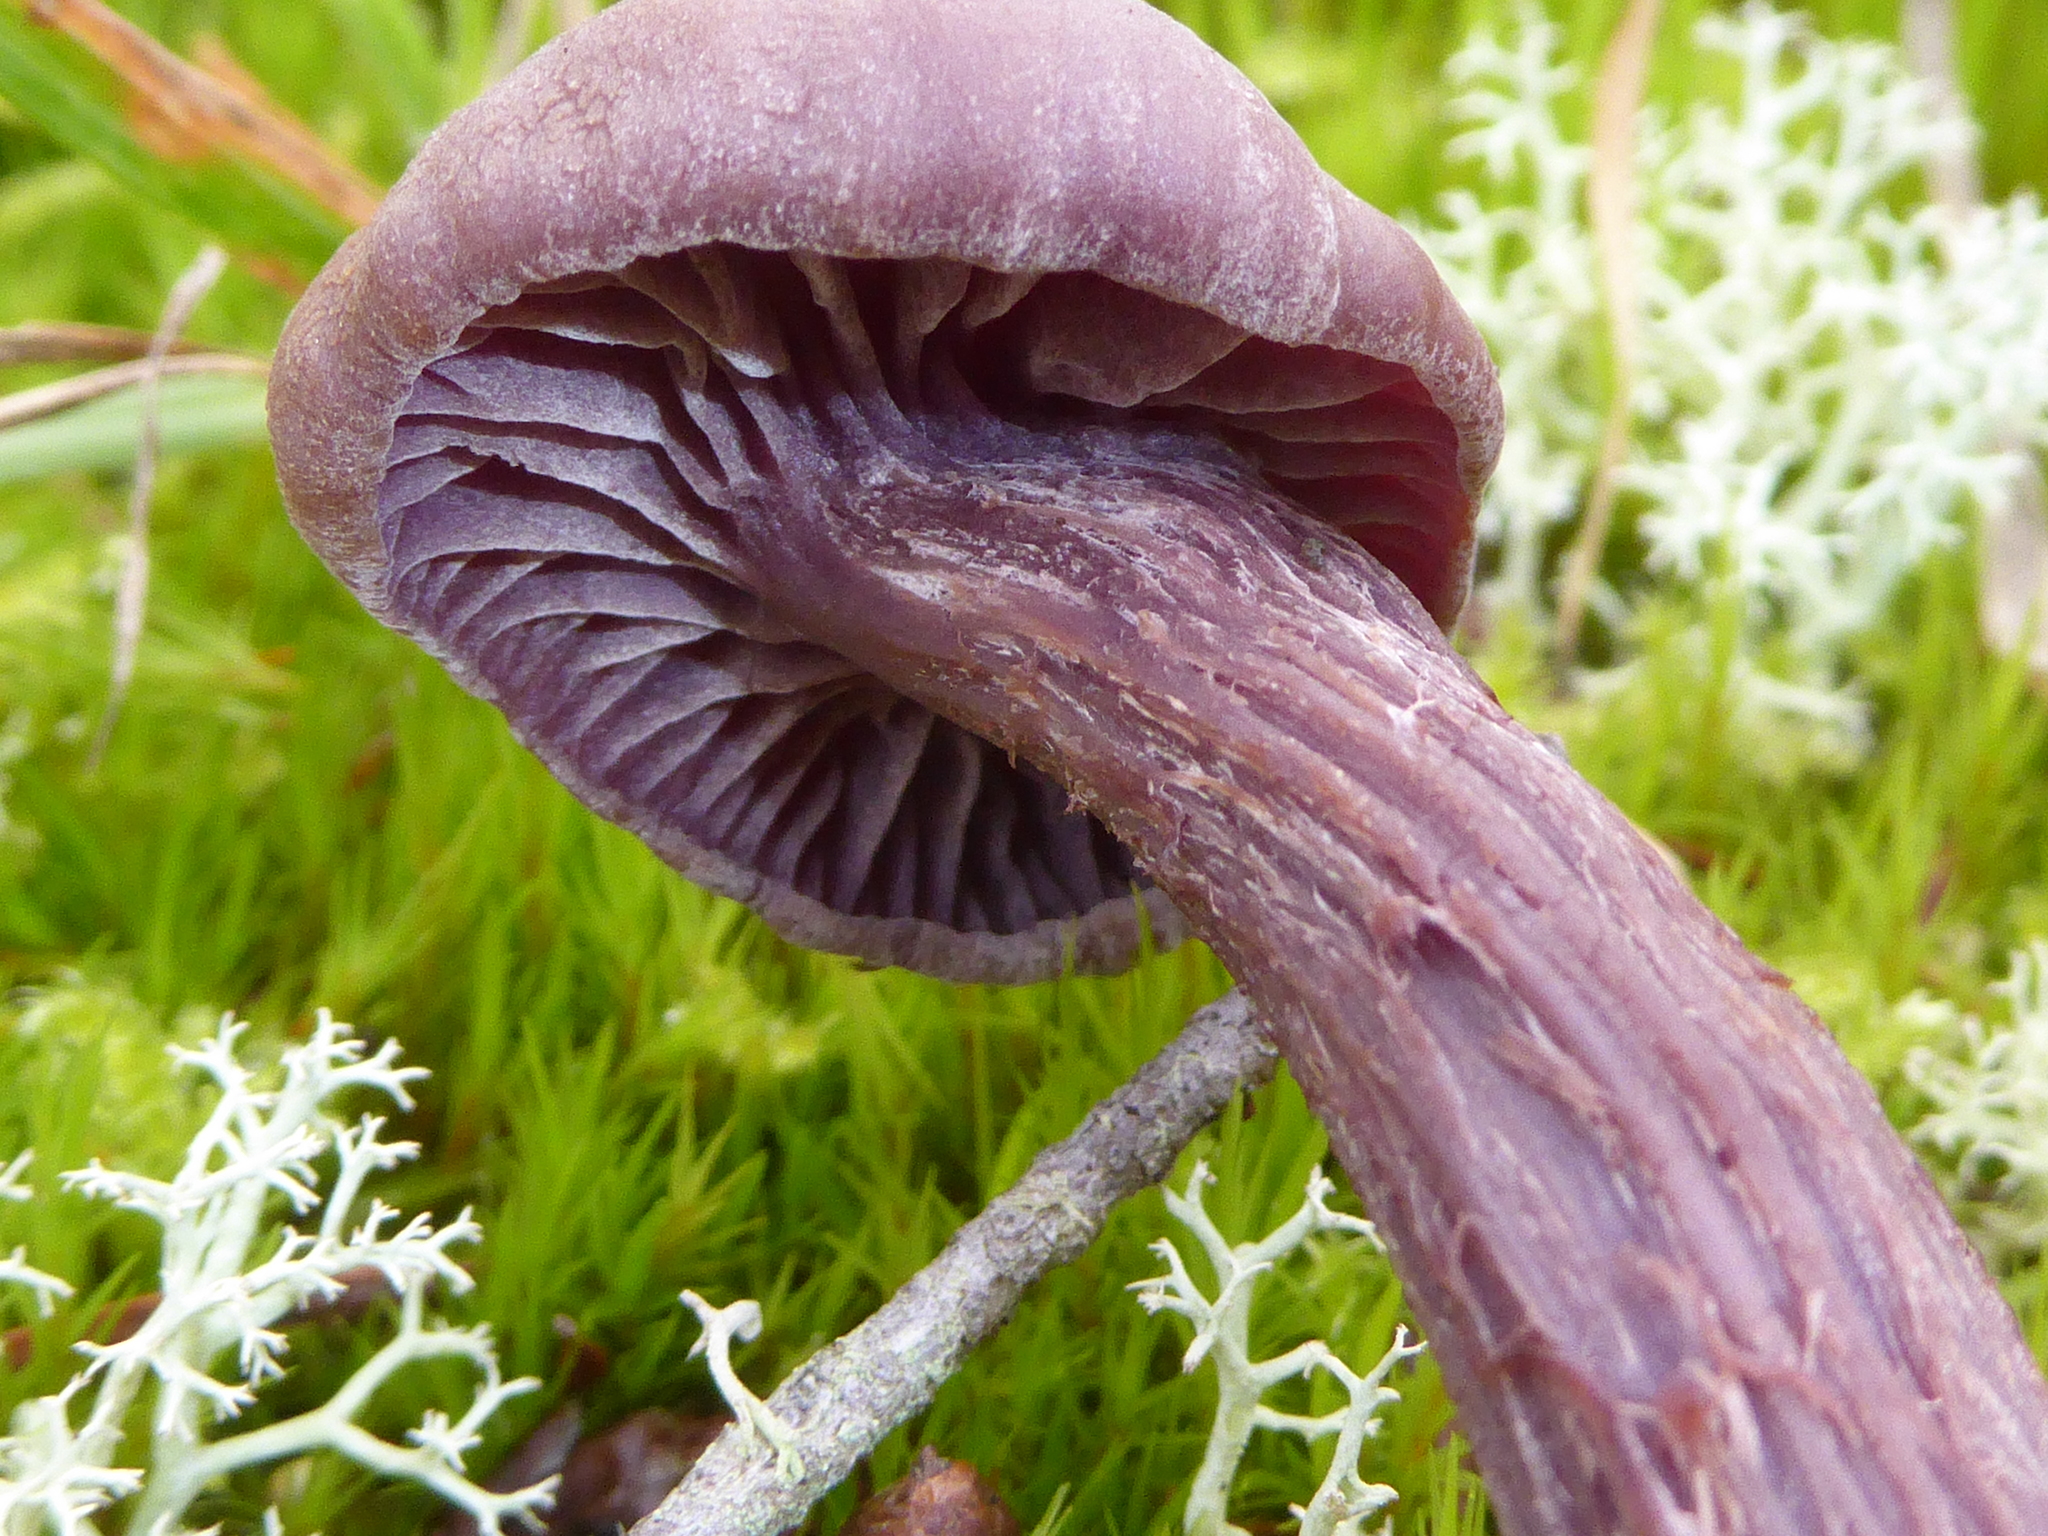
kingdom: Fungi
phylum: Basidiomycota
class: Agaricomycetes
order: Agaricales
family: Hydnangiaceae
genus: Laccaria
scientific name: Laccaria amethysteo-occidentalis
